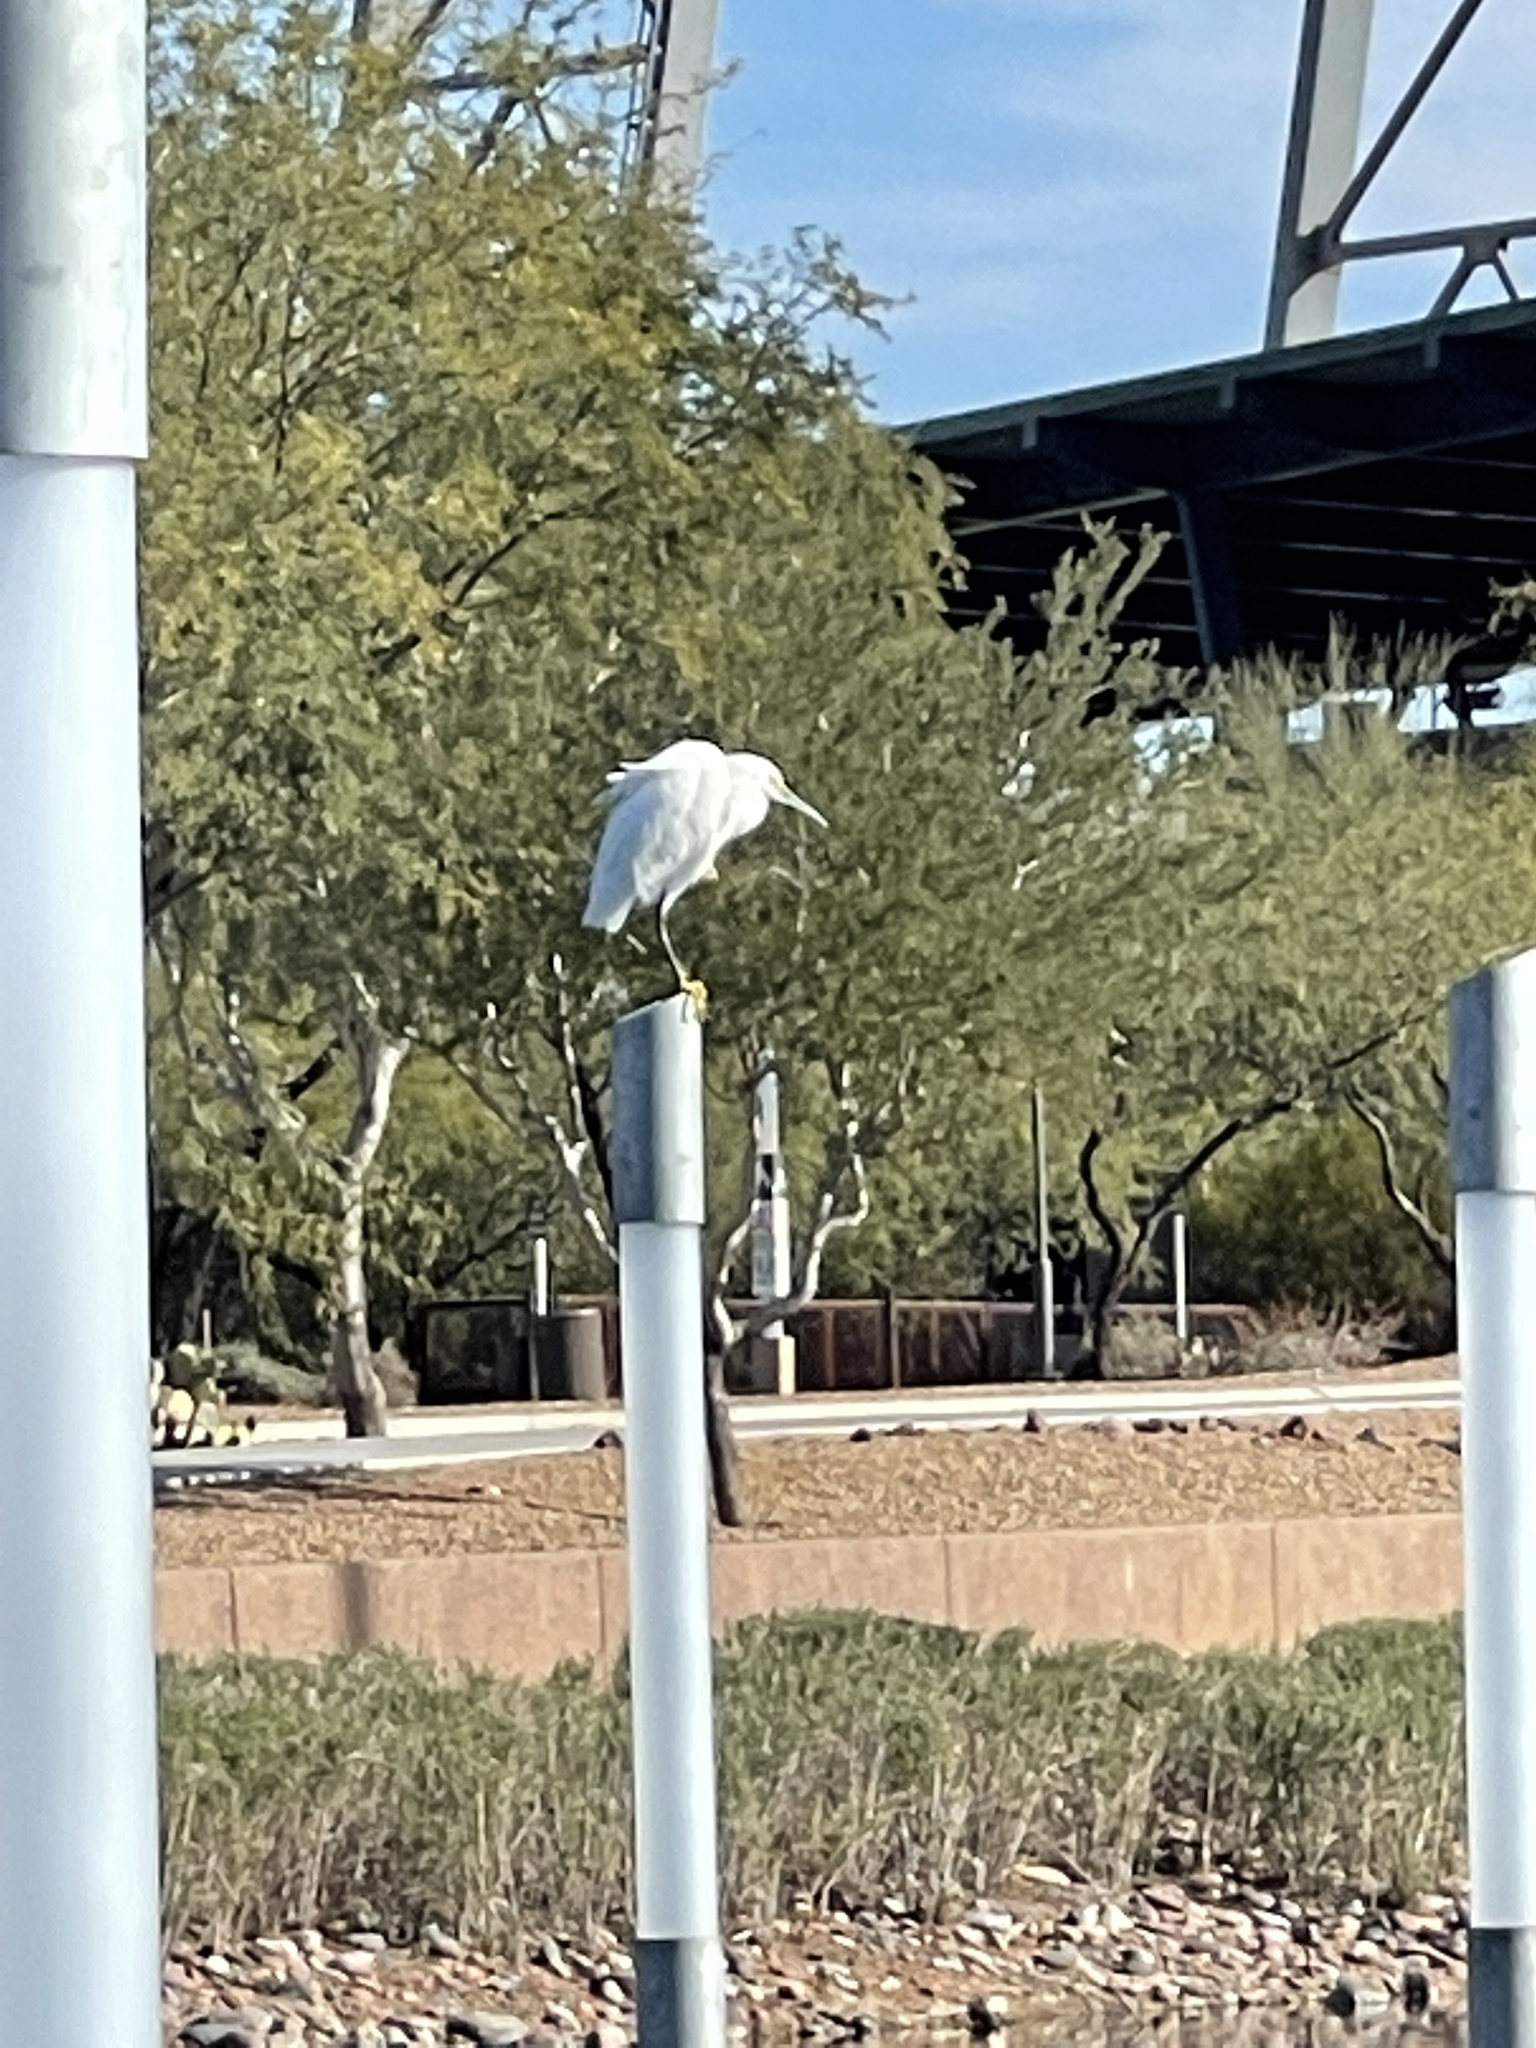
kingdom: Animalia
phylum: Chordata
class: Aves
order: Pelecaniformes
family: Ardeidae
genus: Egretta
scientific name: Egretta thula
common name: Snowy egret
